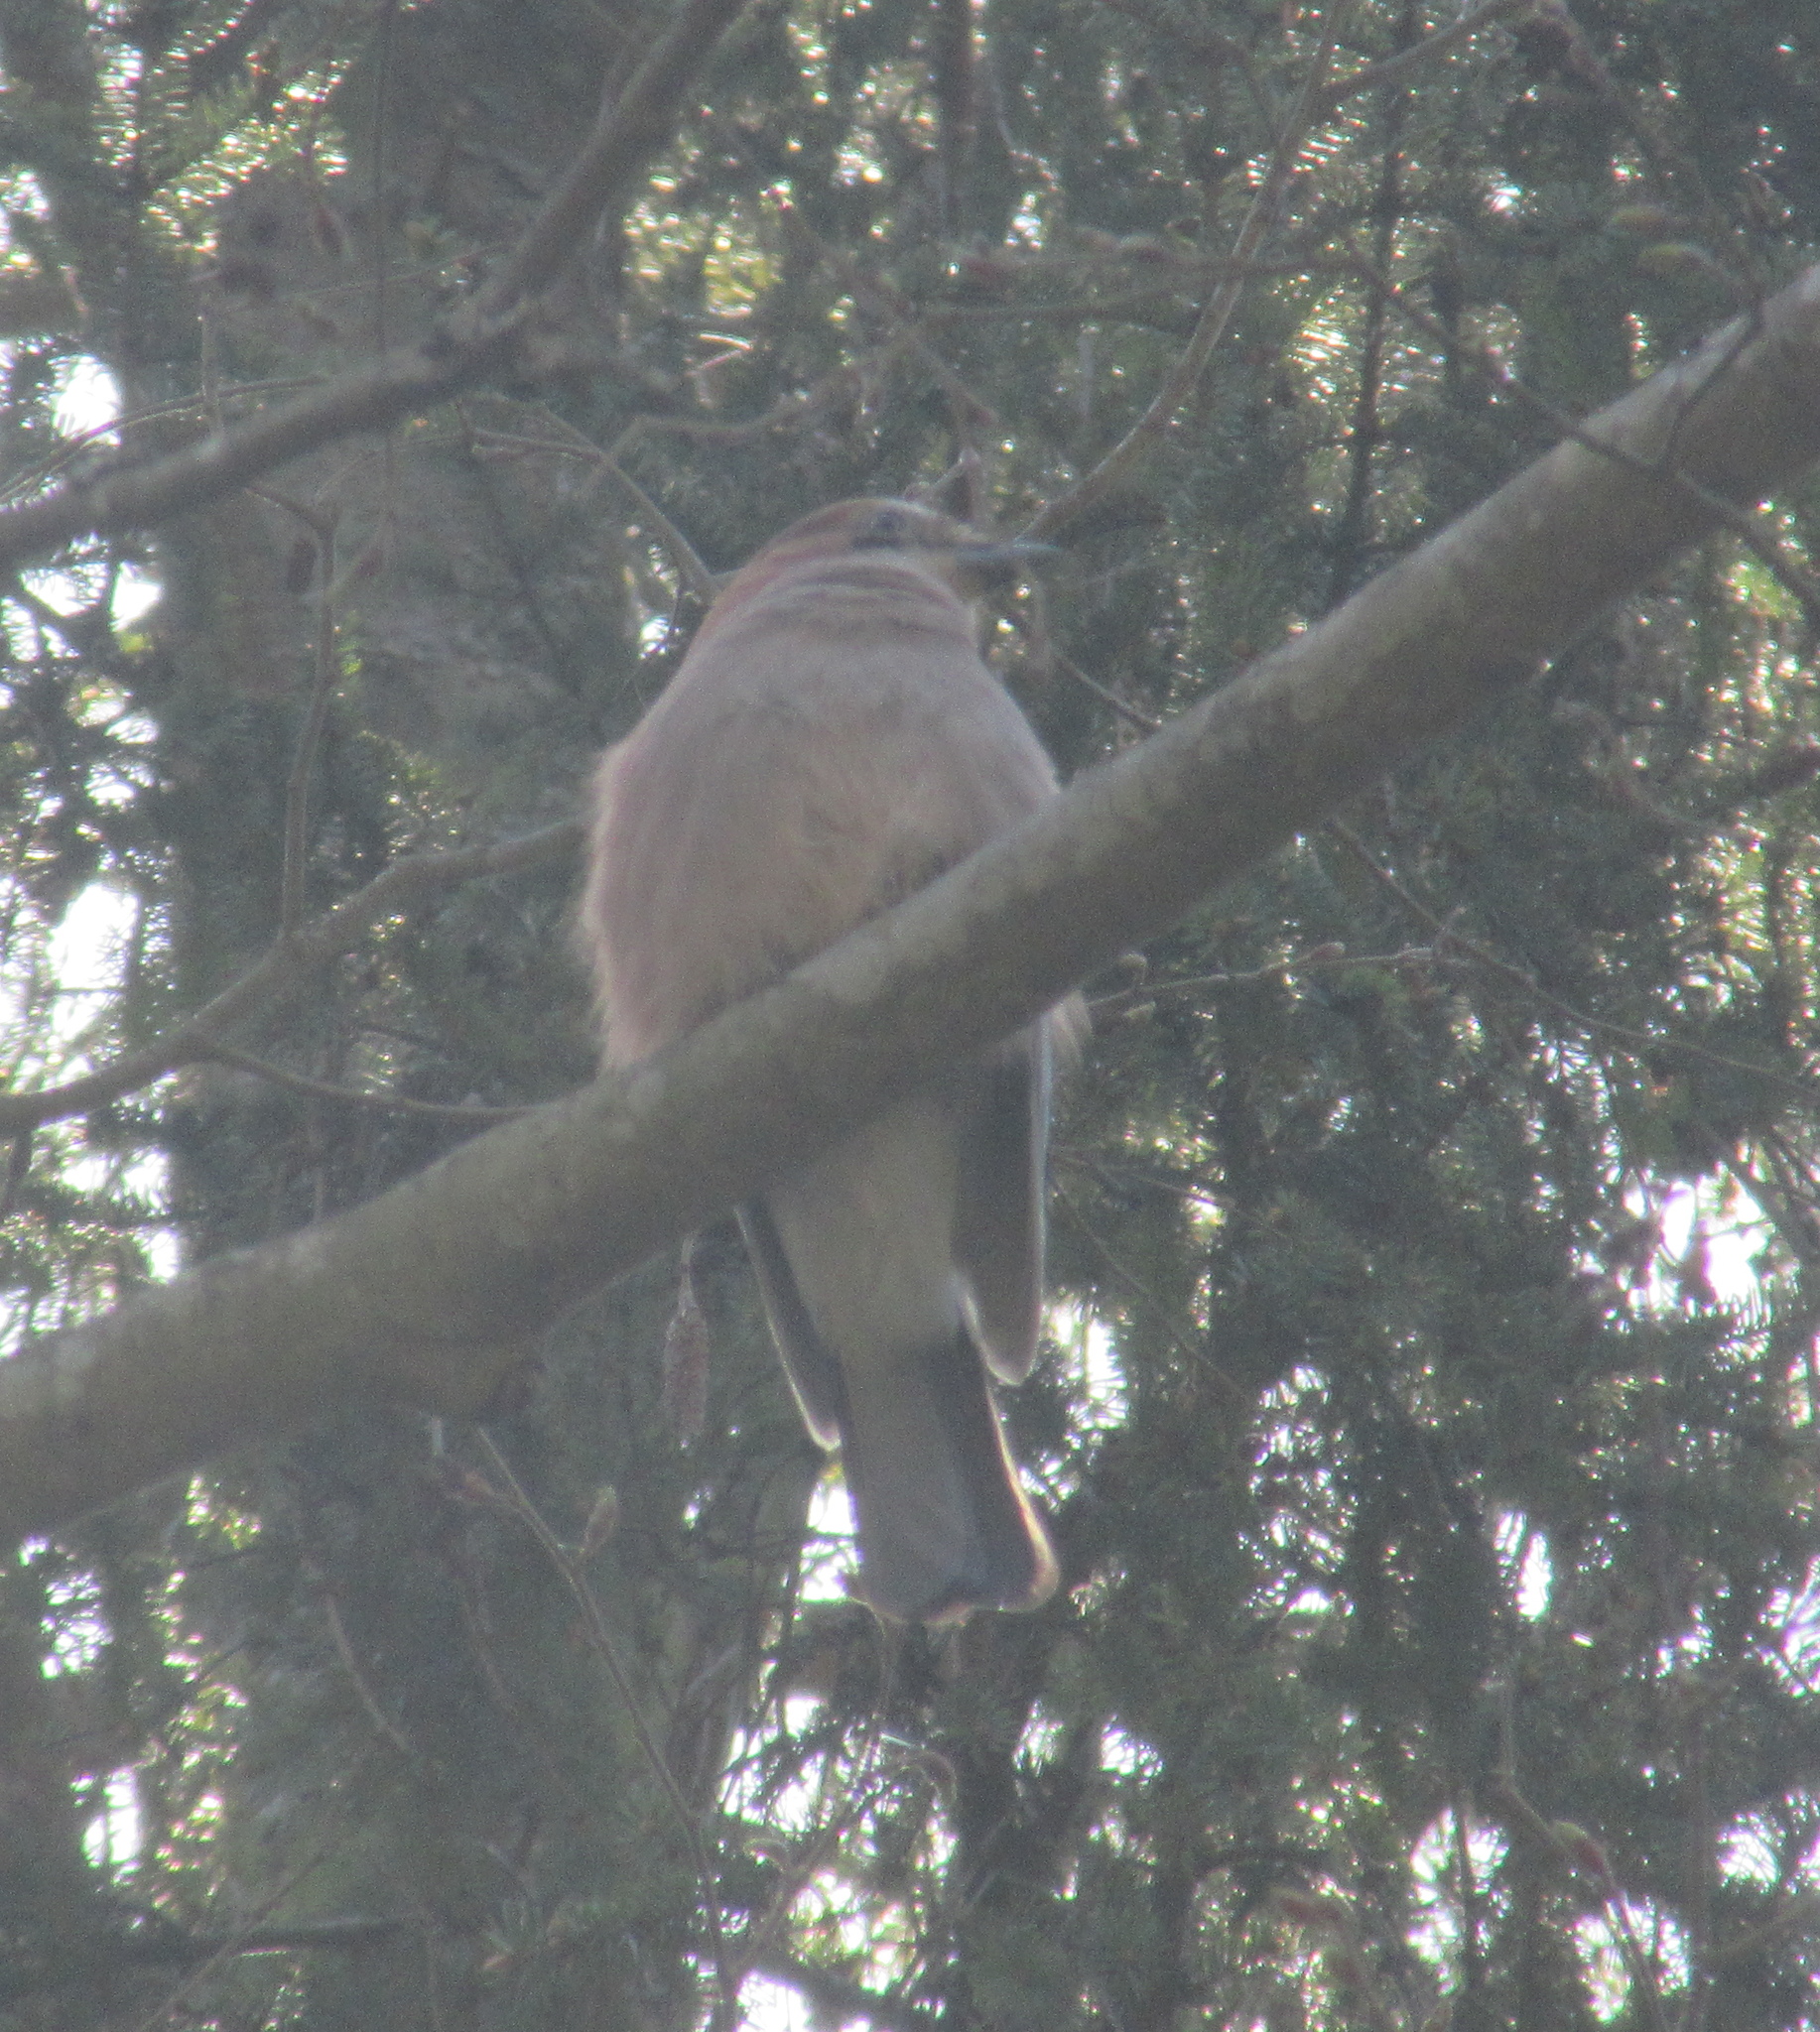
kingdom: Animalia
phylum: Chordata
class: Aves
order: Passeriformes
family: Corvidae
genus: Garrulus
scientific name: Garrulus glandarius
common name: Eurasian jay
